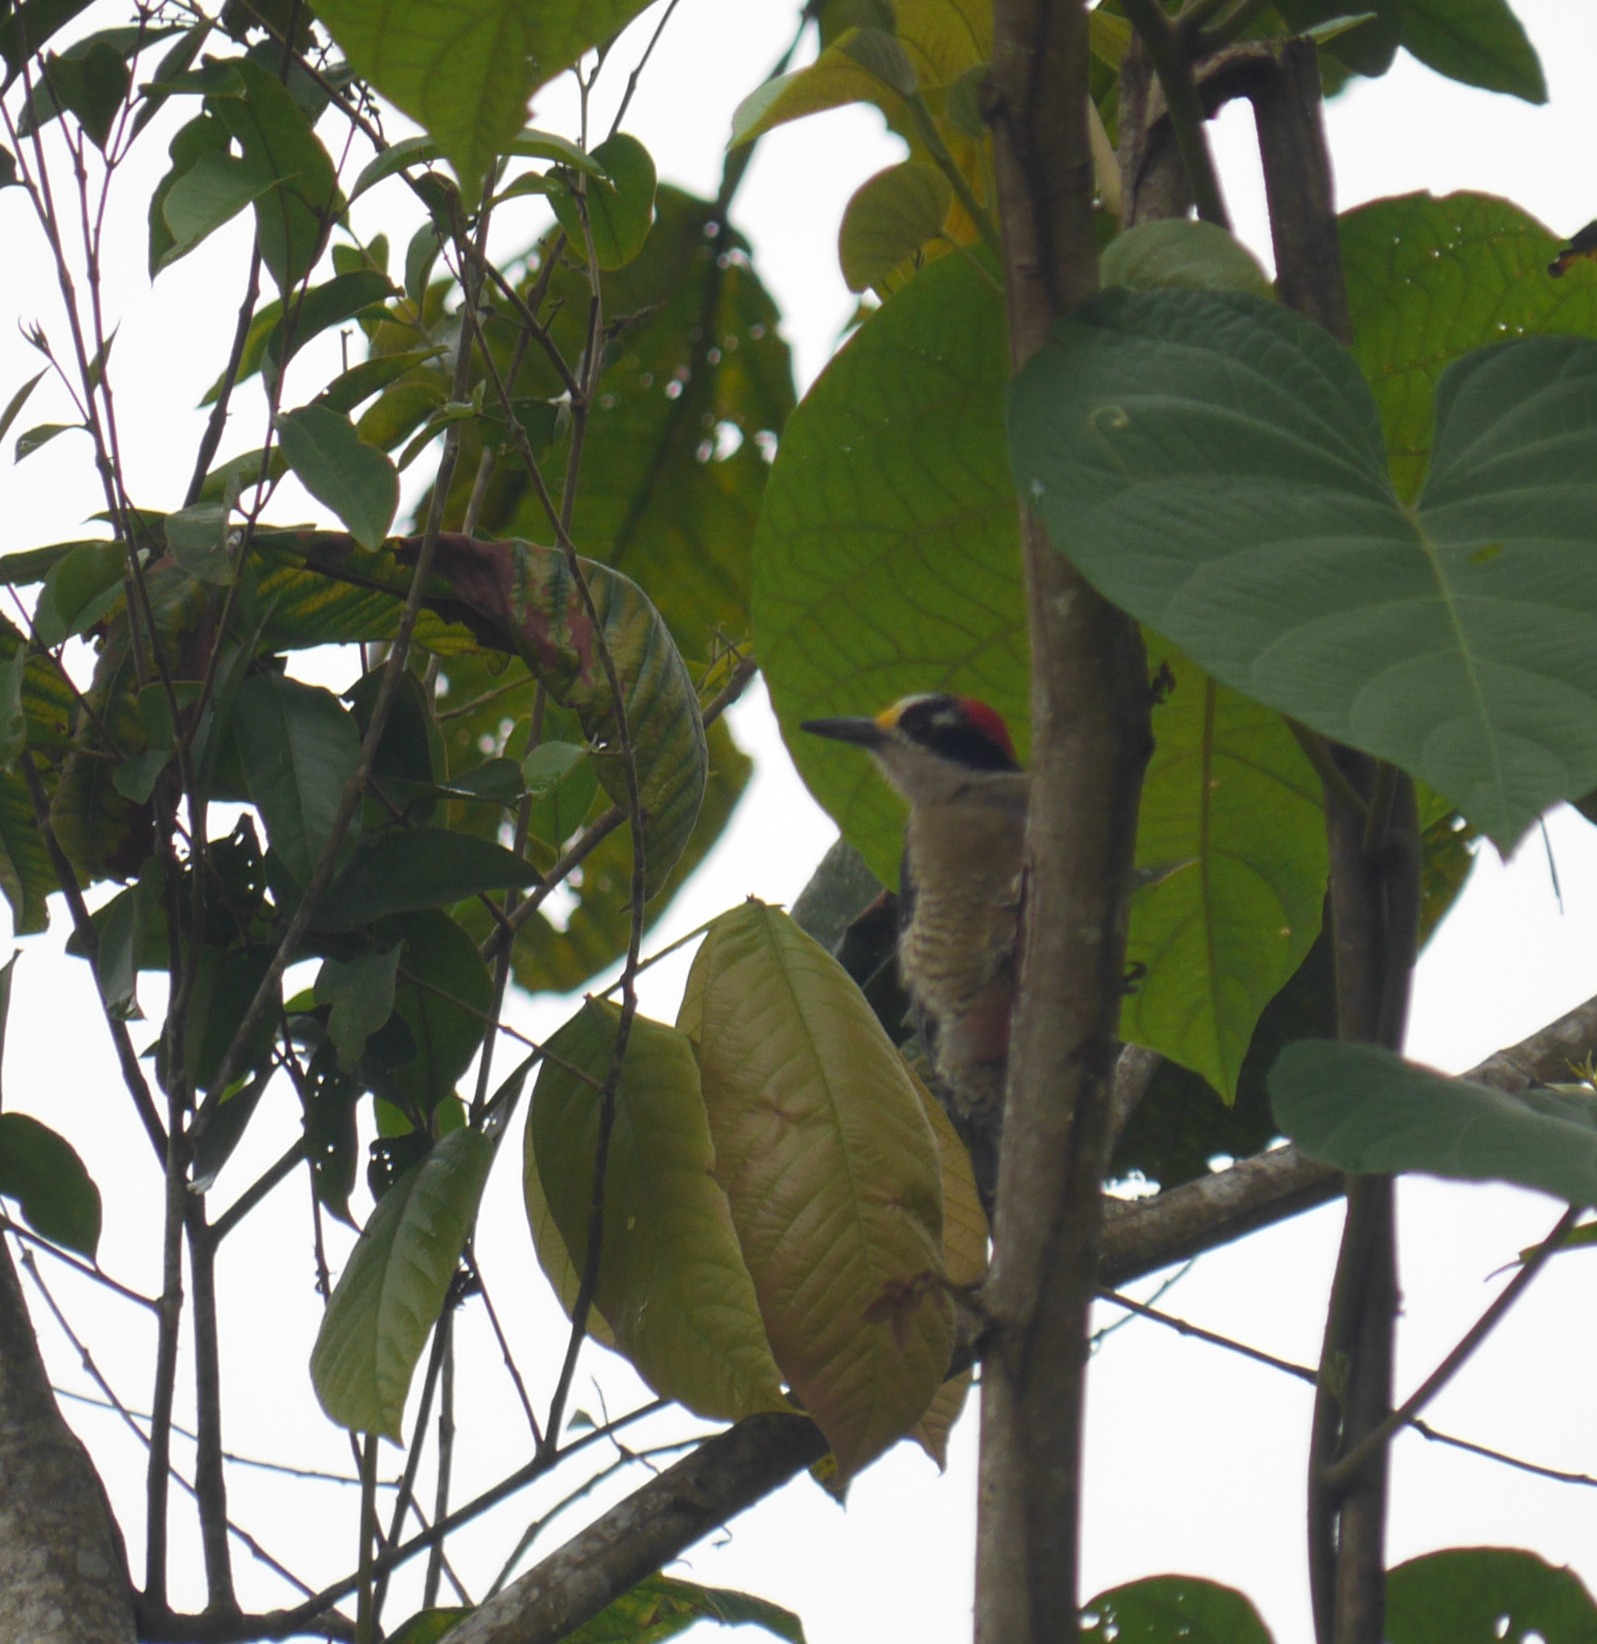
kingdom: Animalia
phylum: Chordata
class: Aves
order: Piciformes
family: Picidae
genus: Melanerpes
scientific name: Melanerpes pucherani
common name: Black-cheeked woodpecker
